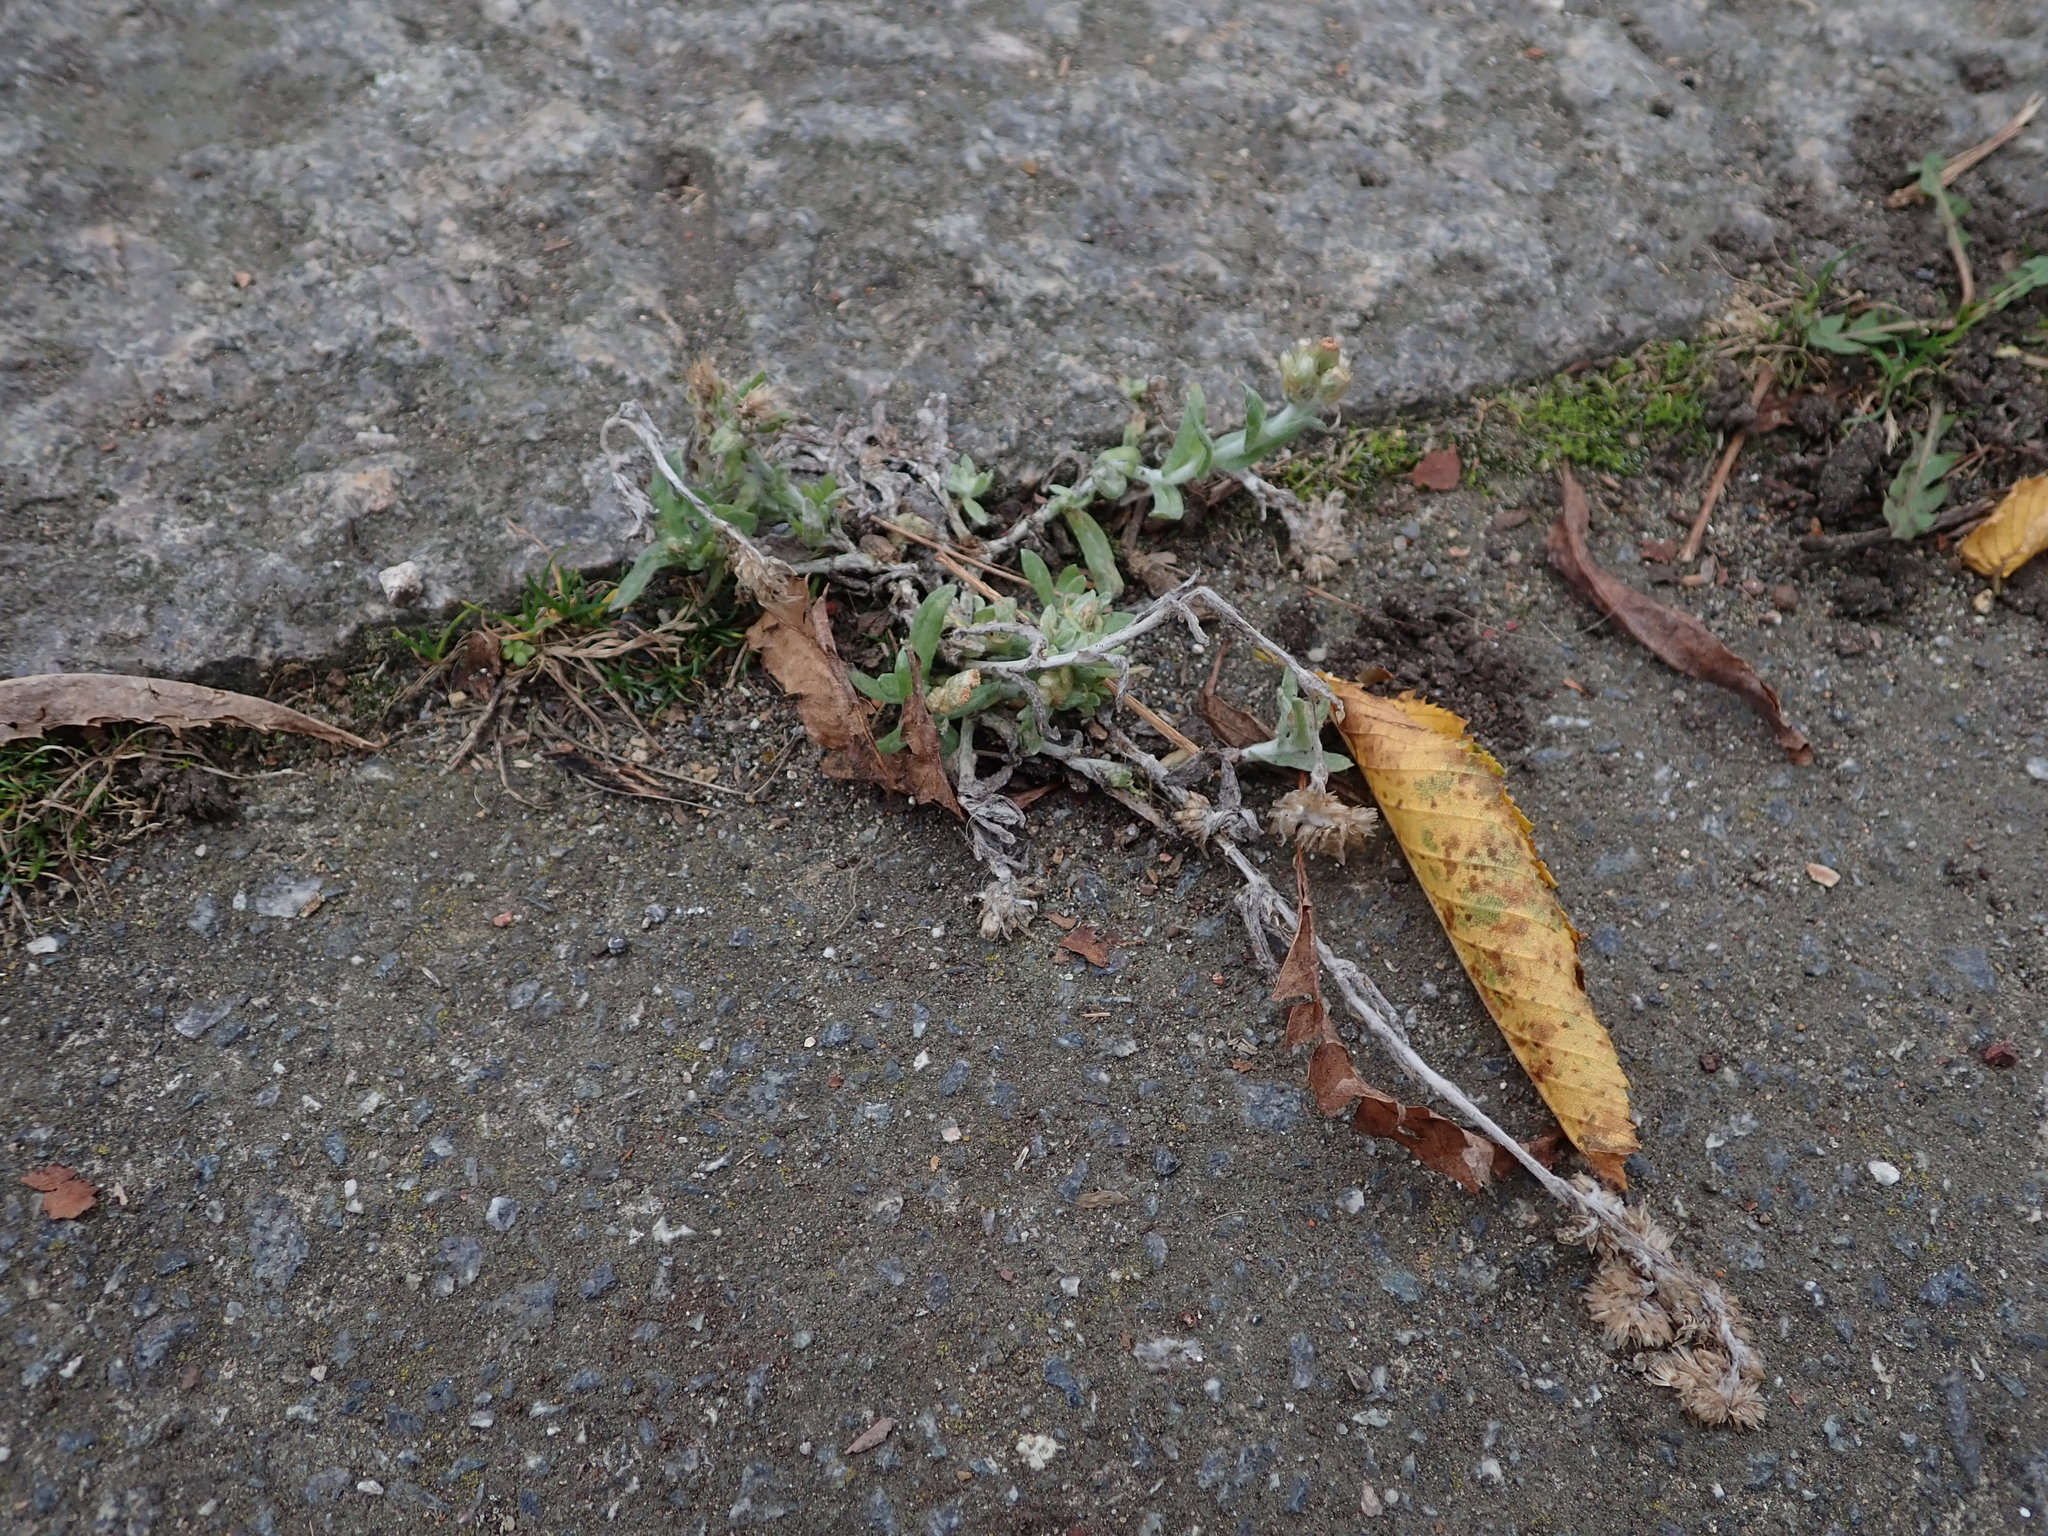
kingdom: Plantae
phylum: Tracheophyta
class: Magnoliopsida
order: Asterales
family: Asteraceae
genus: Helichrysum
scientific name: Helichrysum luteoalbum
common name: Daisy
